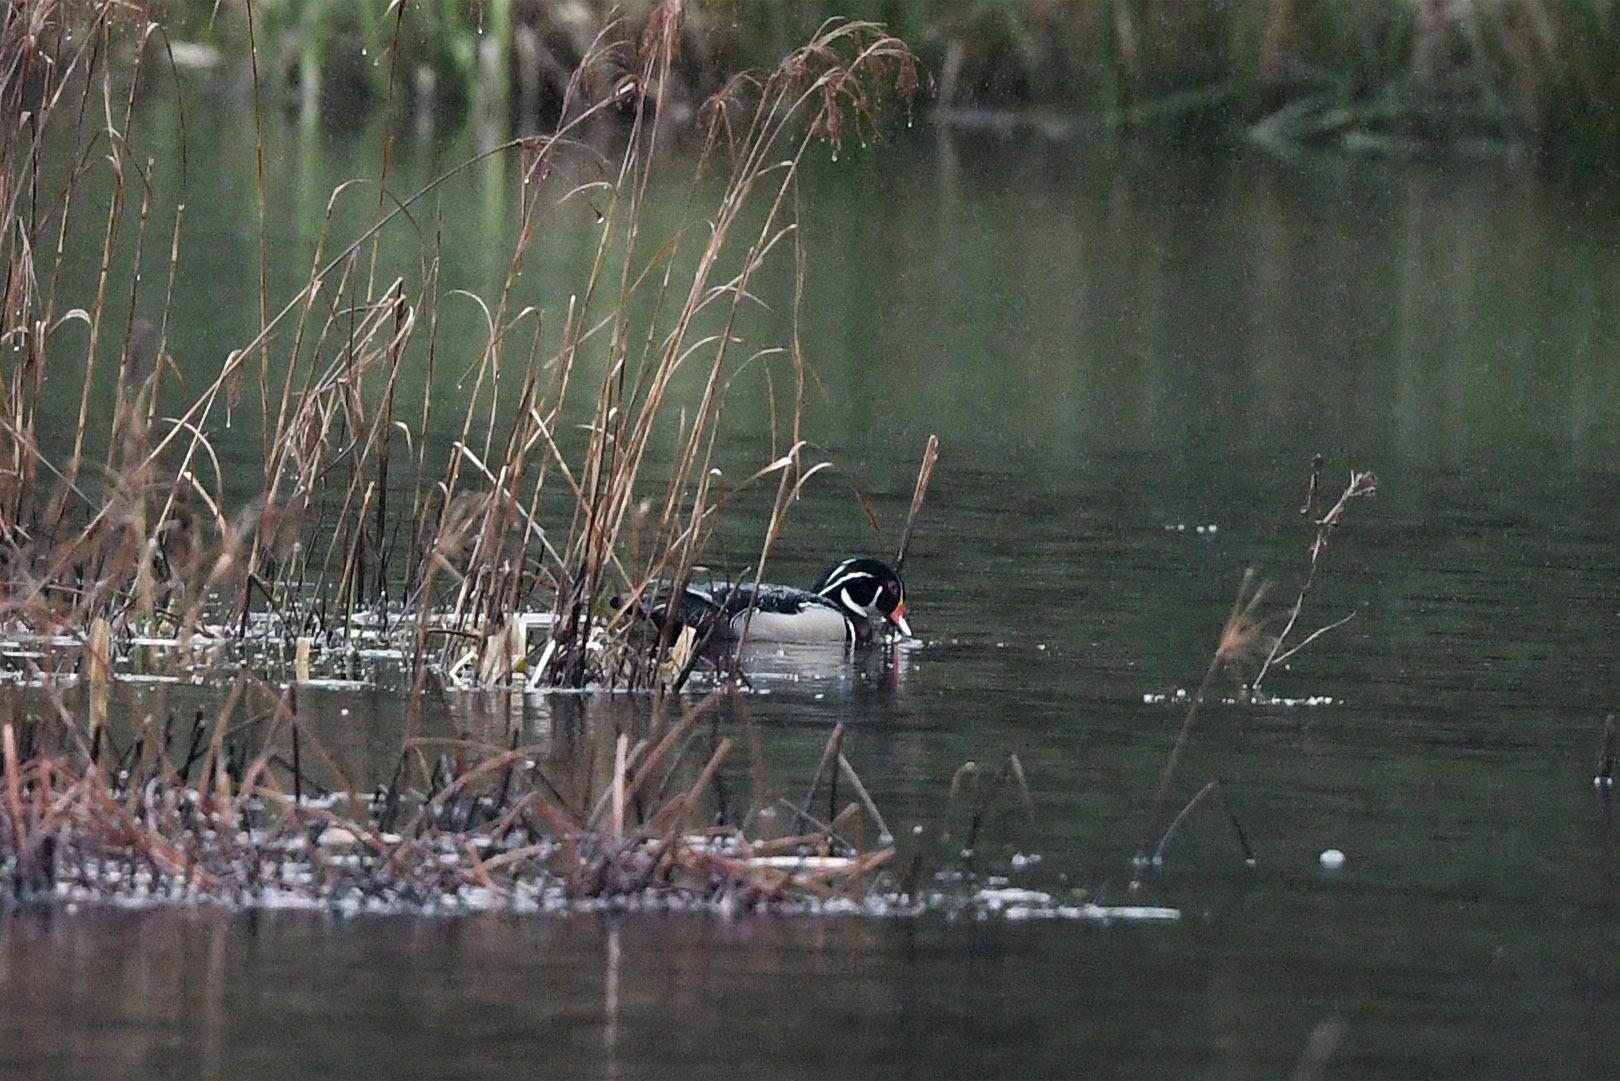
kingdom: Animalia
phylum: Chordata
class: Aves
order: Anseriformes
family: Anatidae
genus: Aix
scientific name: Aix sponsa
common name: Wood duck
